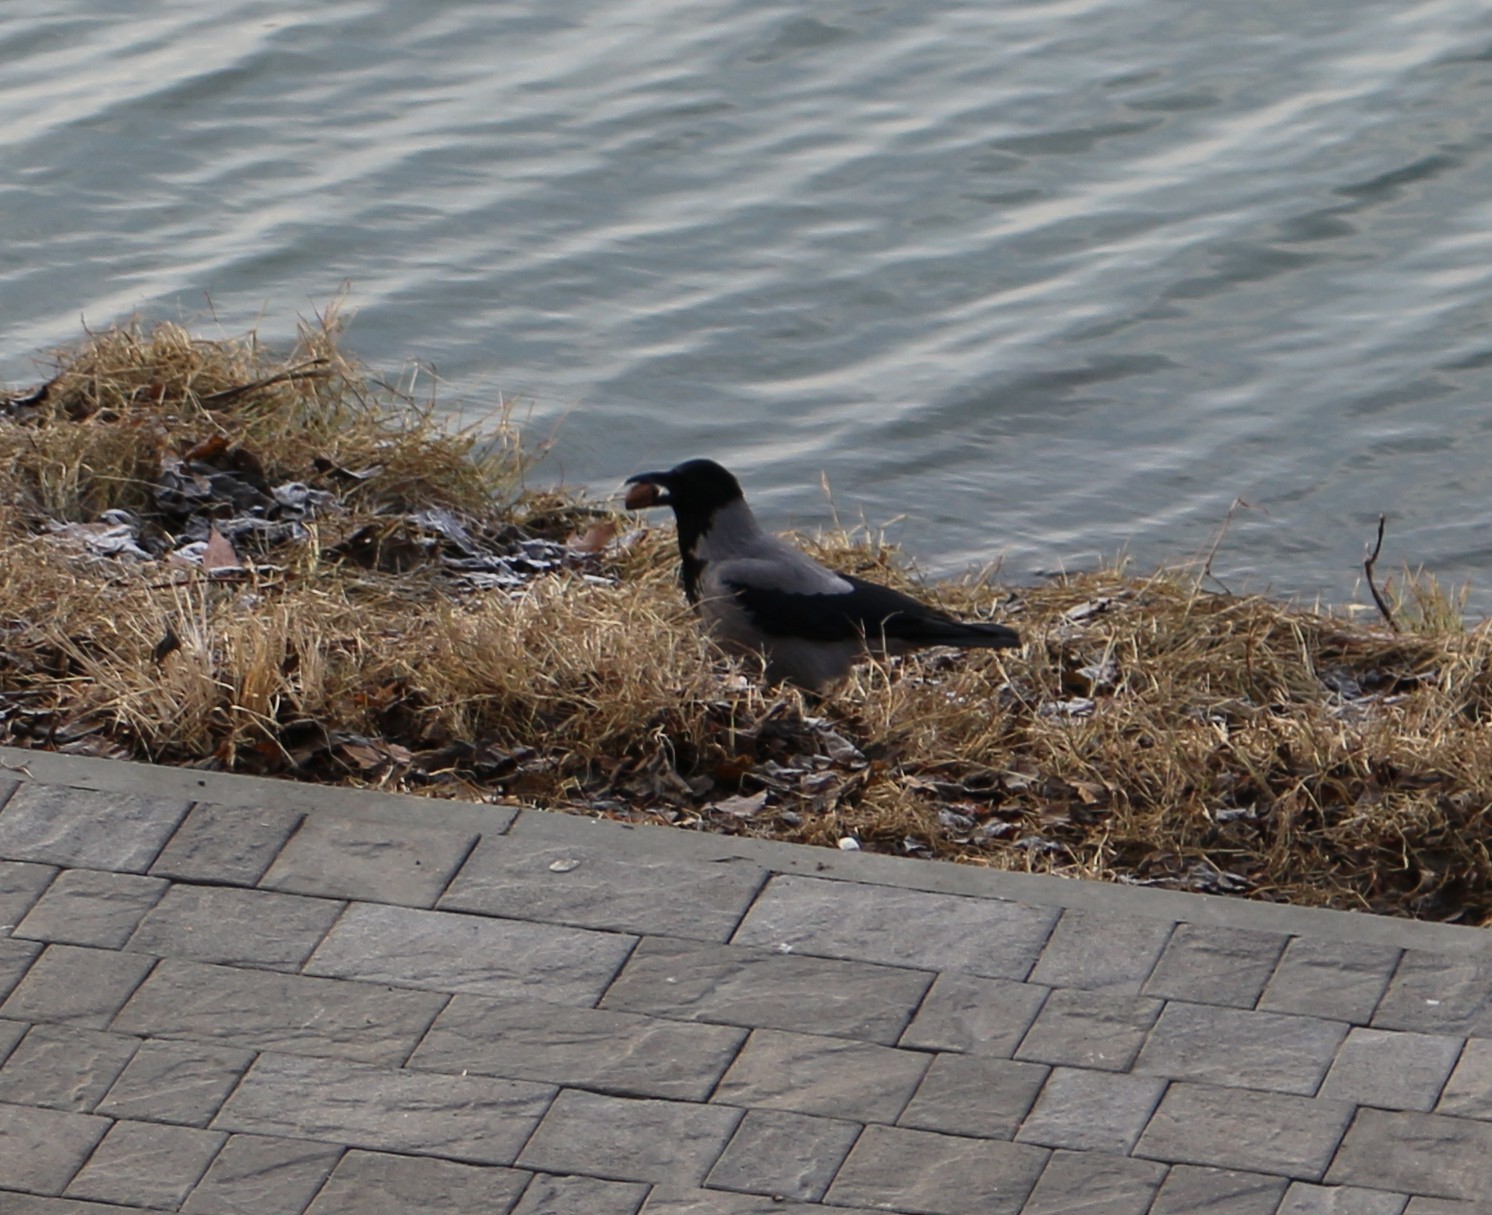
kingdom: Animalia
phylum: Chordata
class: Aves
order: Passeriformes
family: Corvidae
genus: Corvus
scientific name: Corvus cornix
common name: Hooded crow
